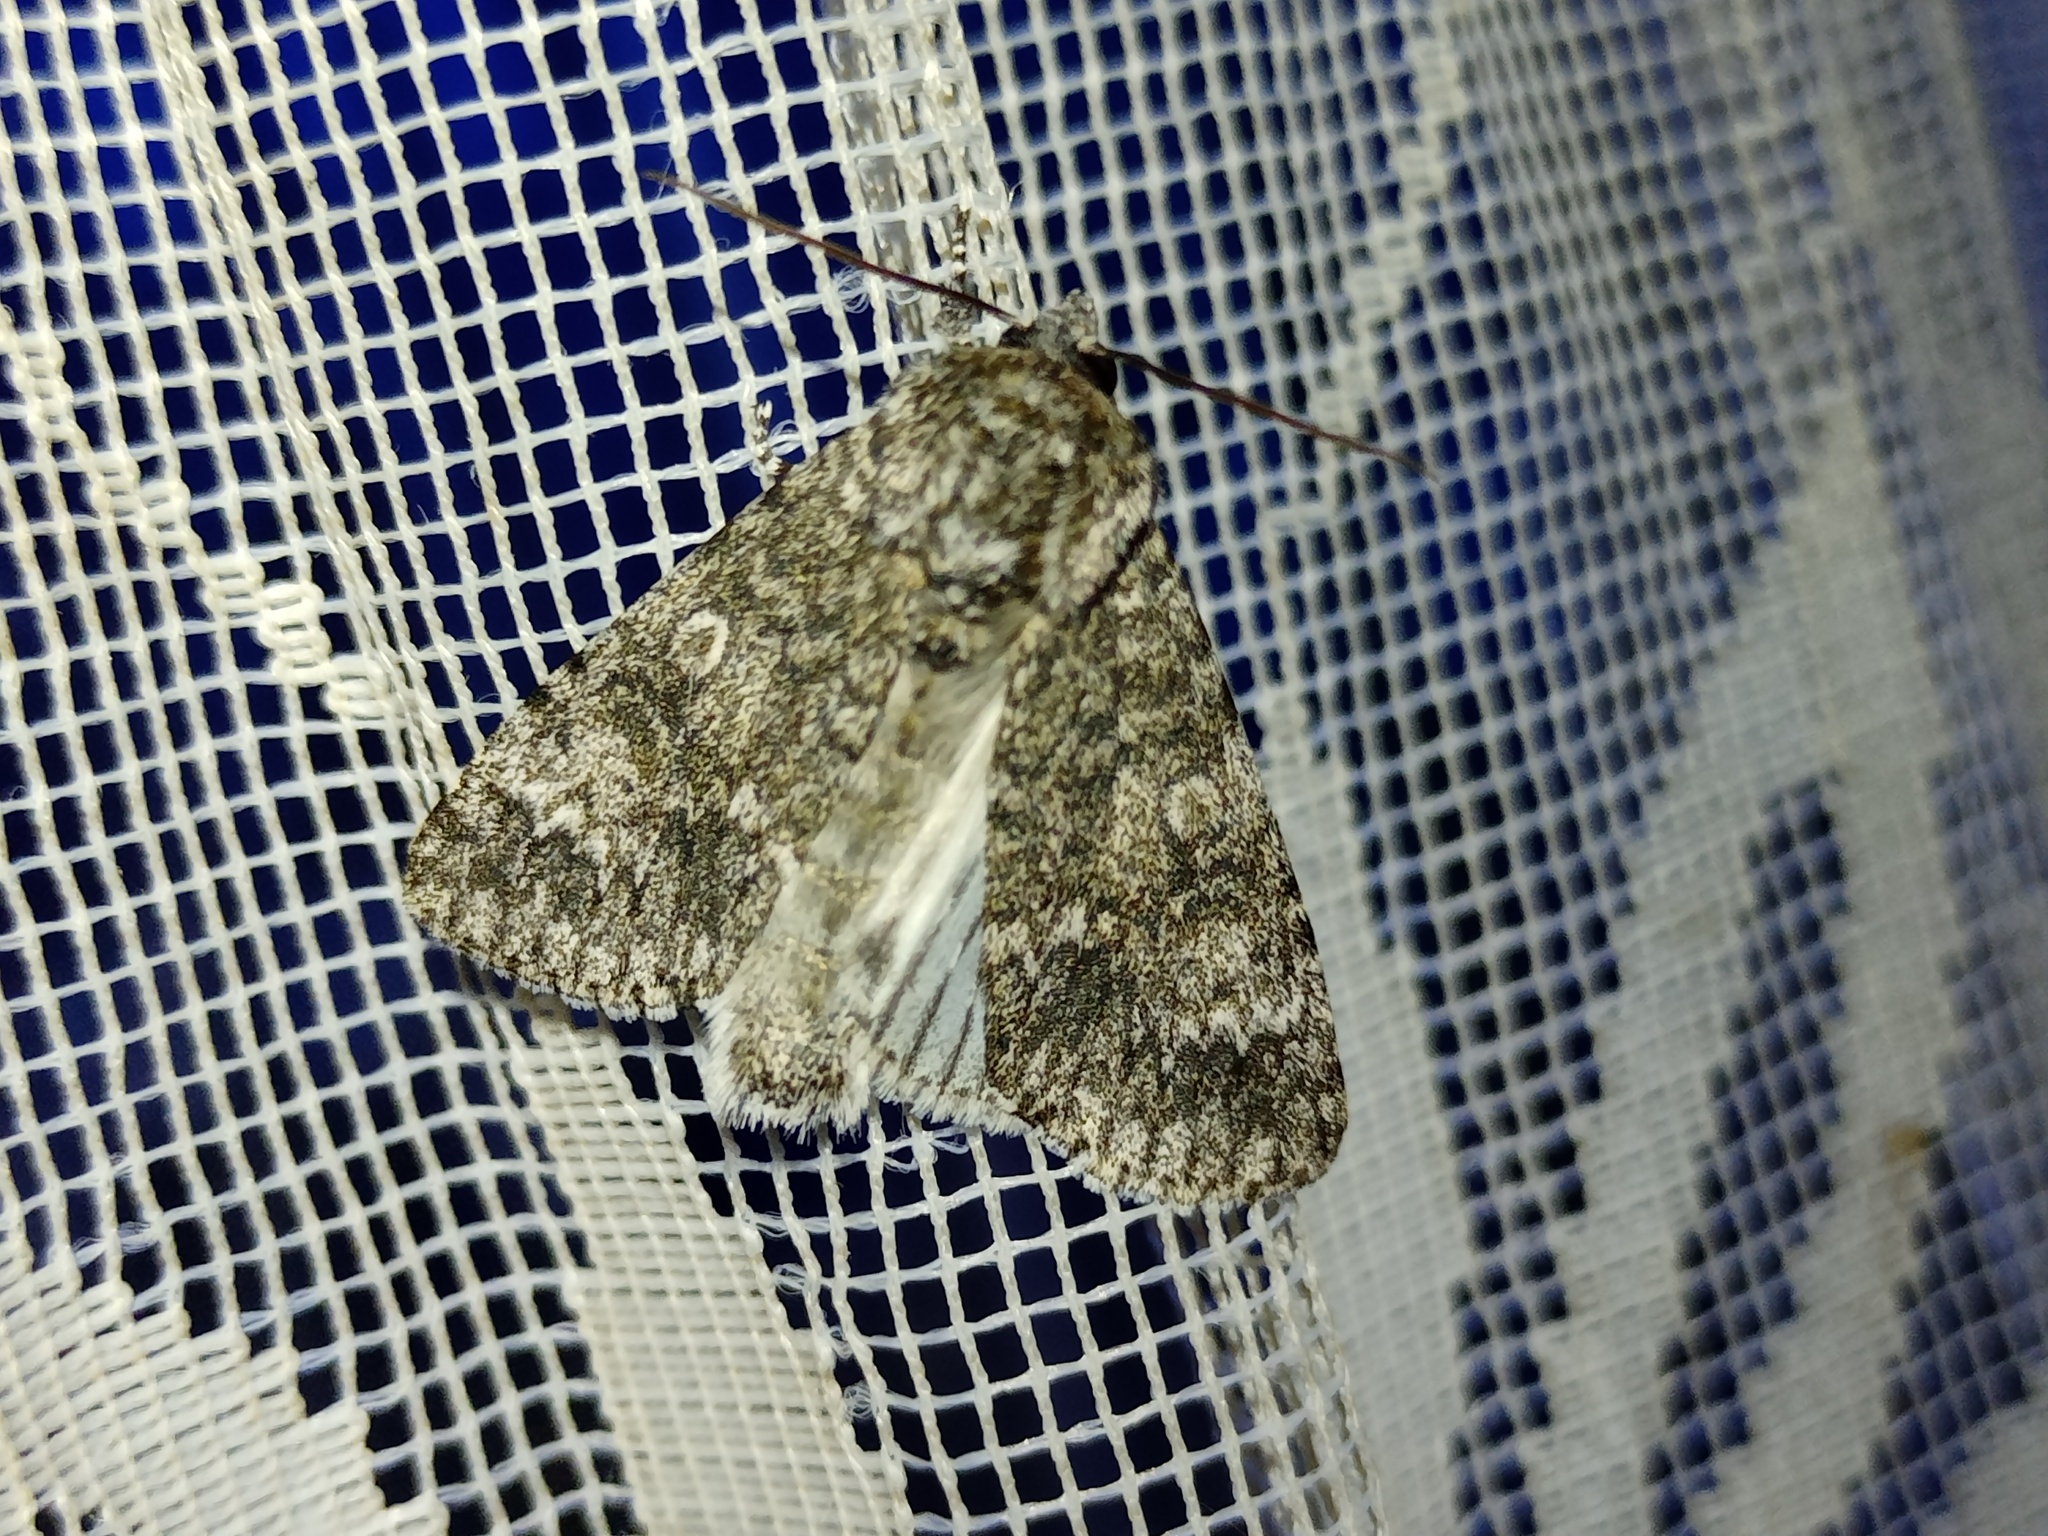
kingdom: Animalia
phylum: Arthropoda
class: Insecta
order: Lepidoptera
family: Noctuidae
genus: Acronicta
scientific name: Acronicta megacephala
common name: Poplar grey
